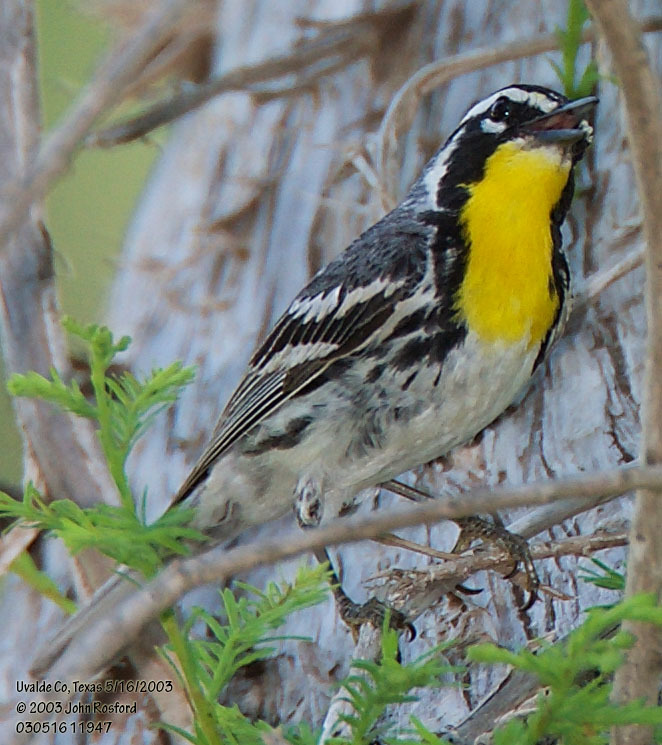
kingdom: Animalia
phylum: Chordata
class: Aves
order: Passeriformes
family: Parulidae
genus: Setophaga
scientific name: Setophaga dominica
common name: Yellow-throated warbler
